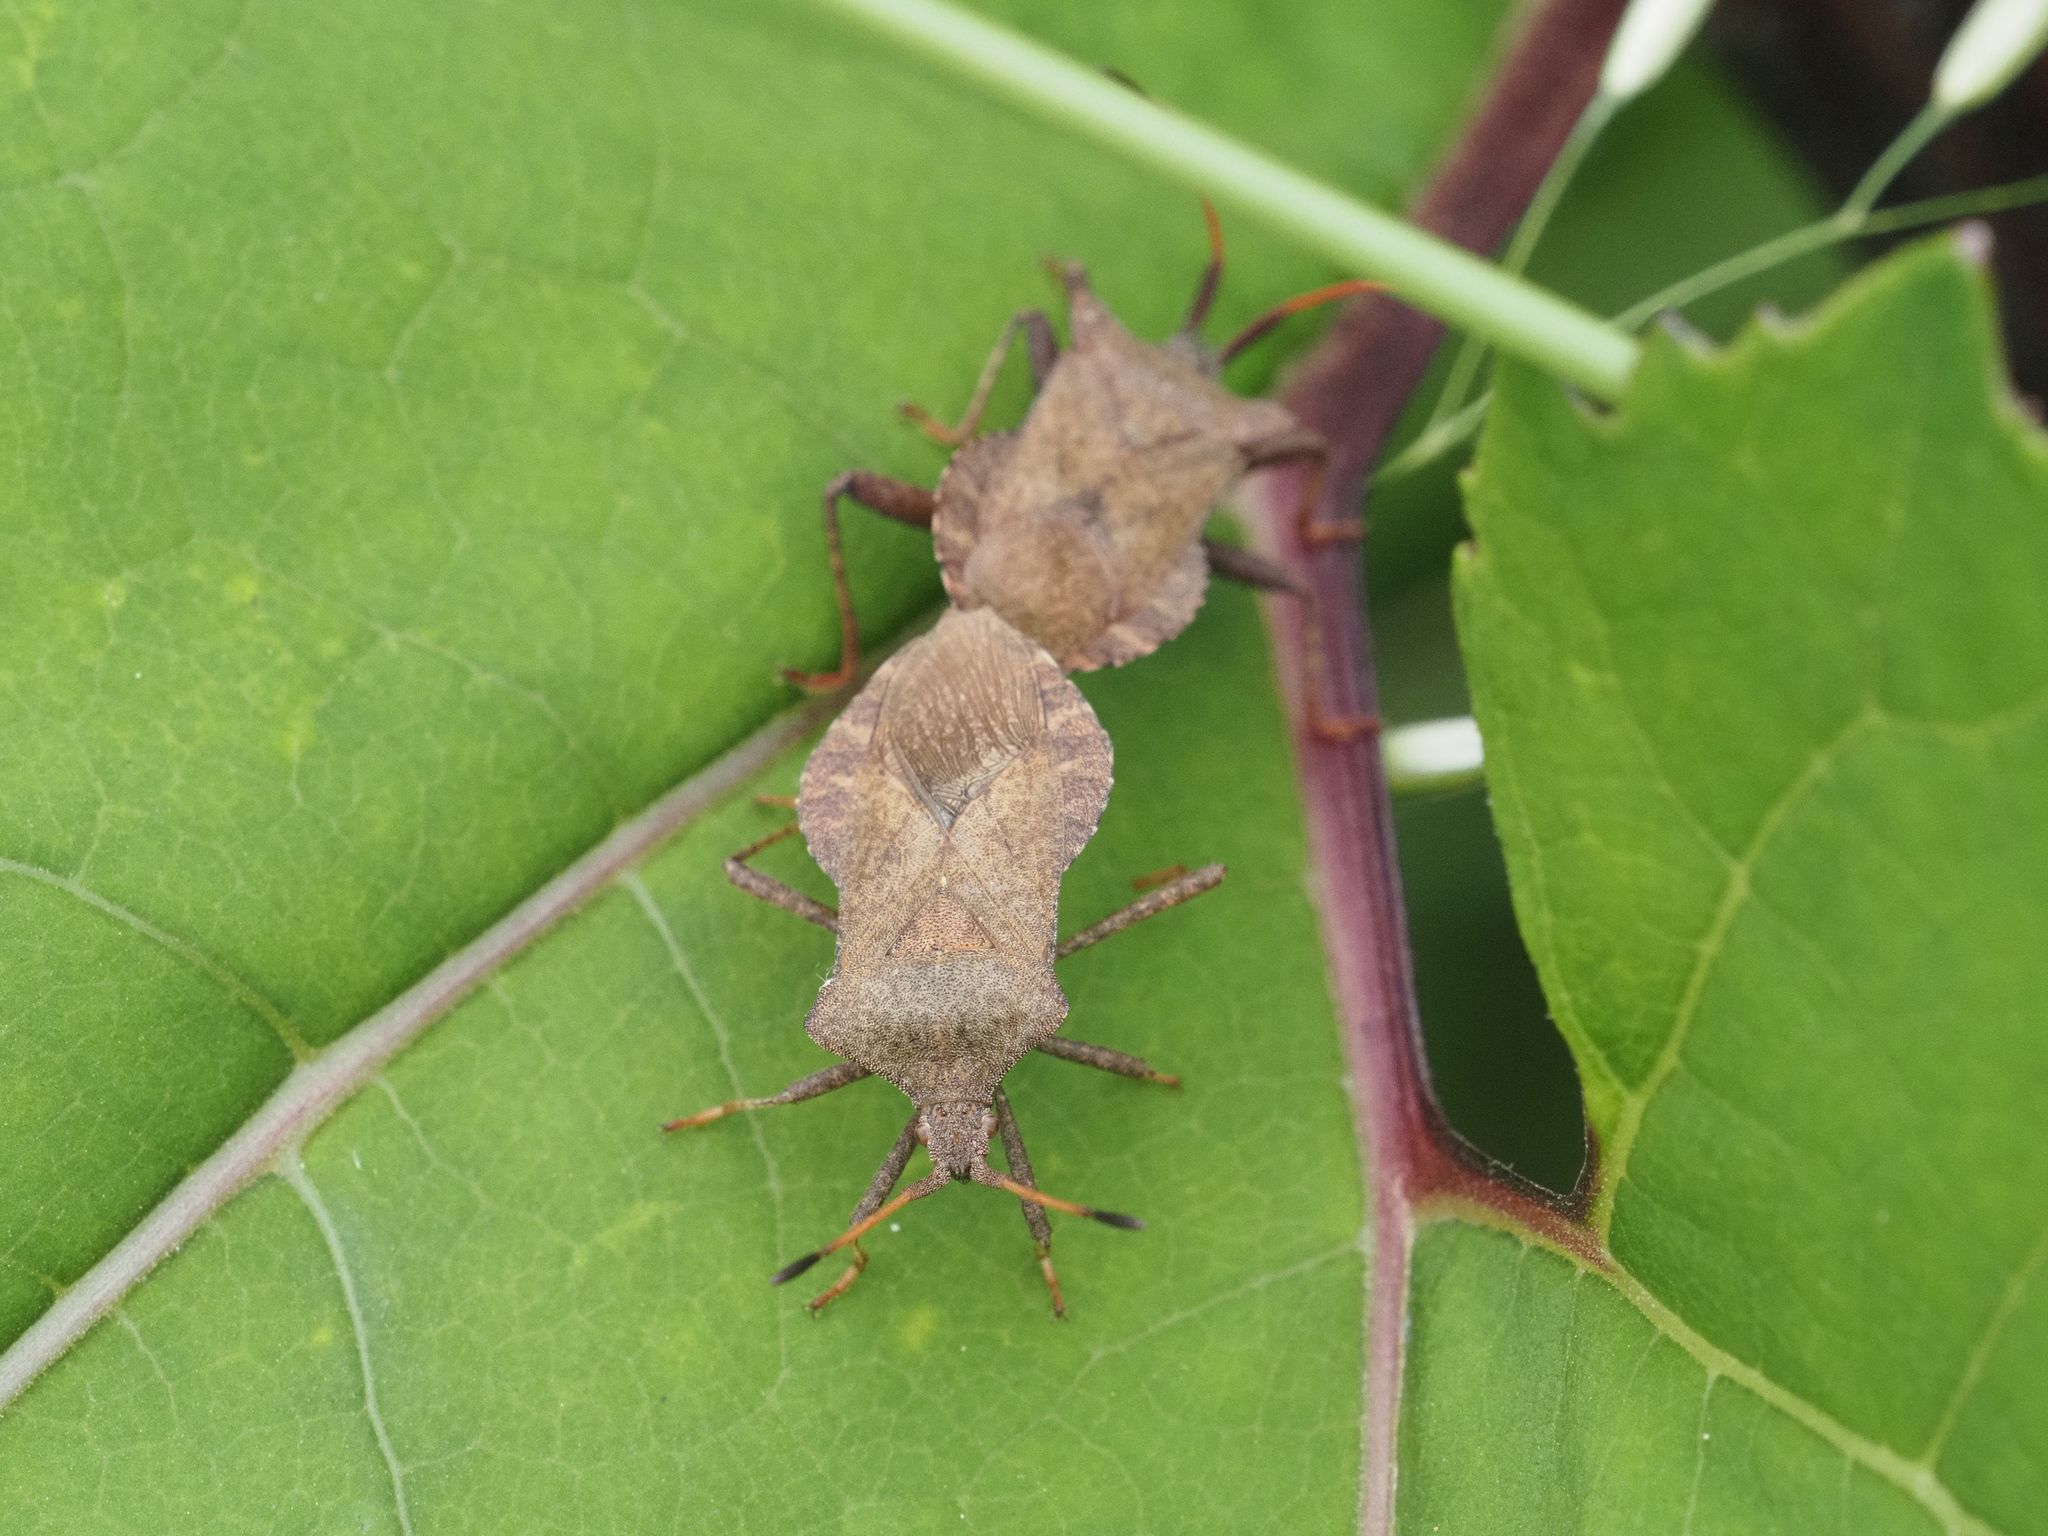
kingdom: Animalia
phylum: Arthropoda
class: Insecta
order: Hemiptera
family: Coreidae
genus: Coreus
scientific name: Coreus marginatus
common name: Dock bug
